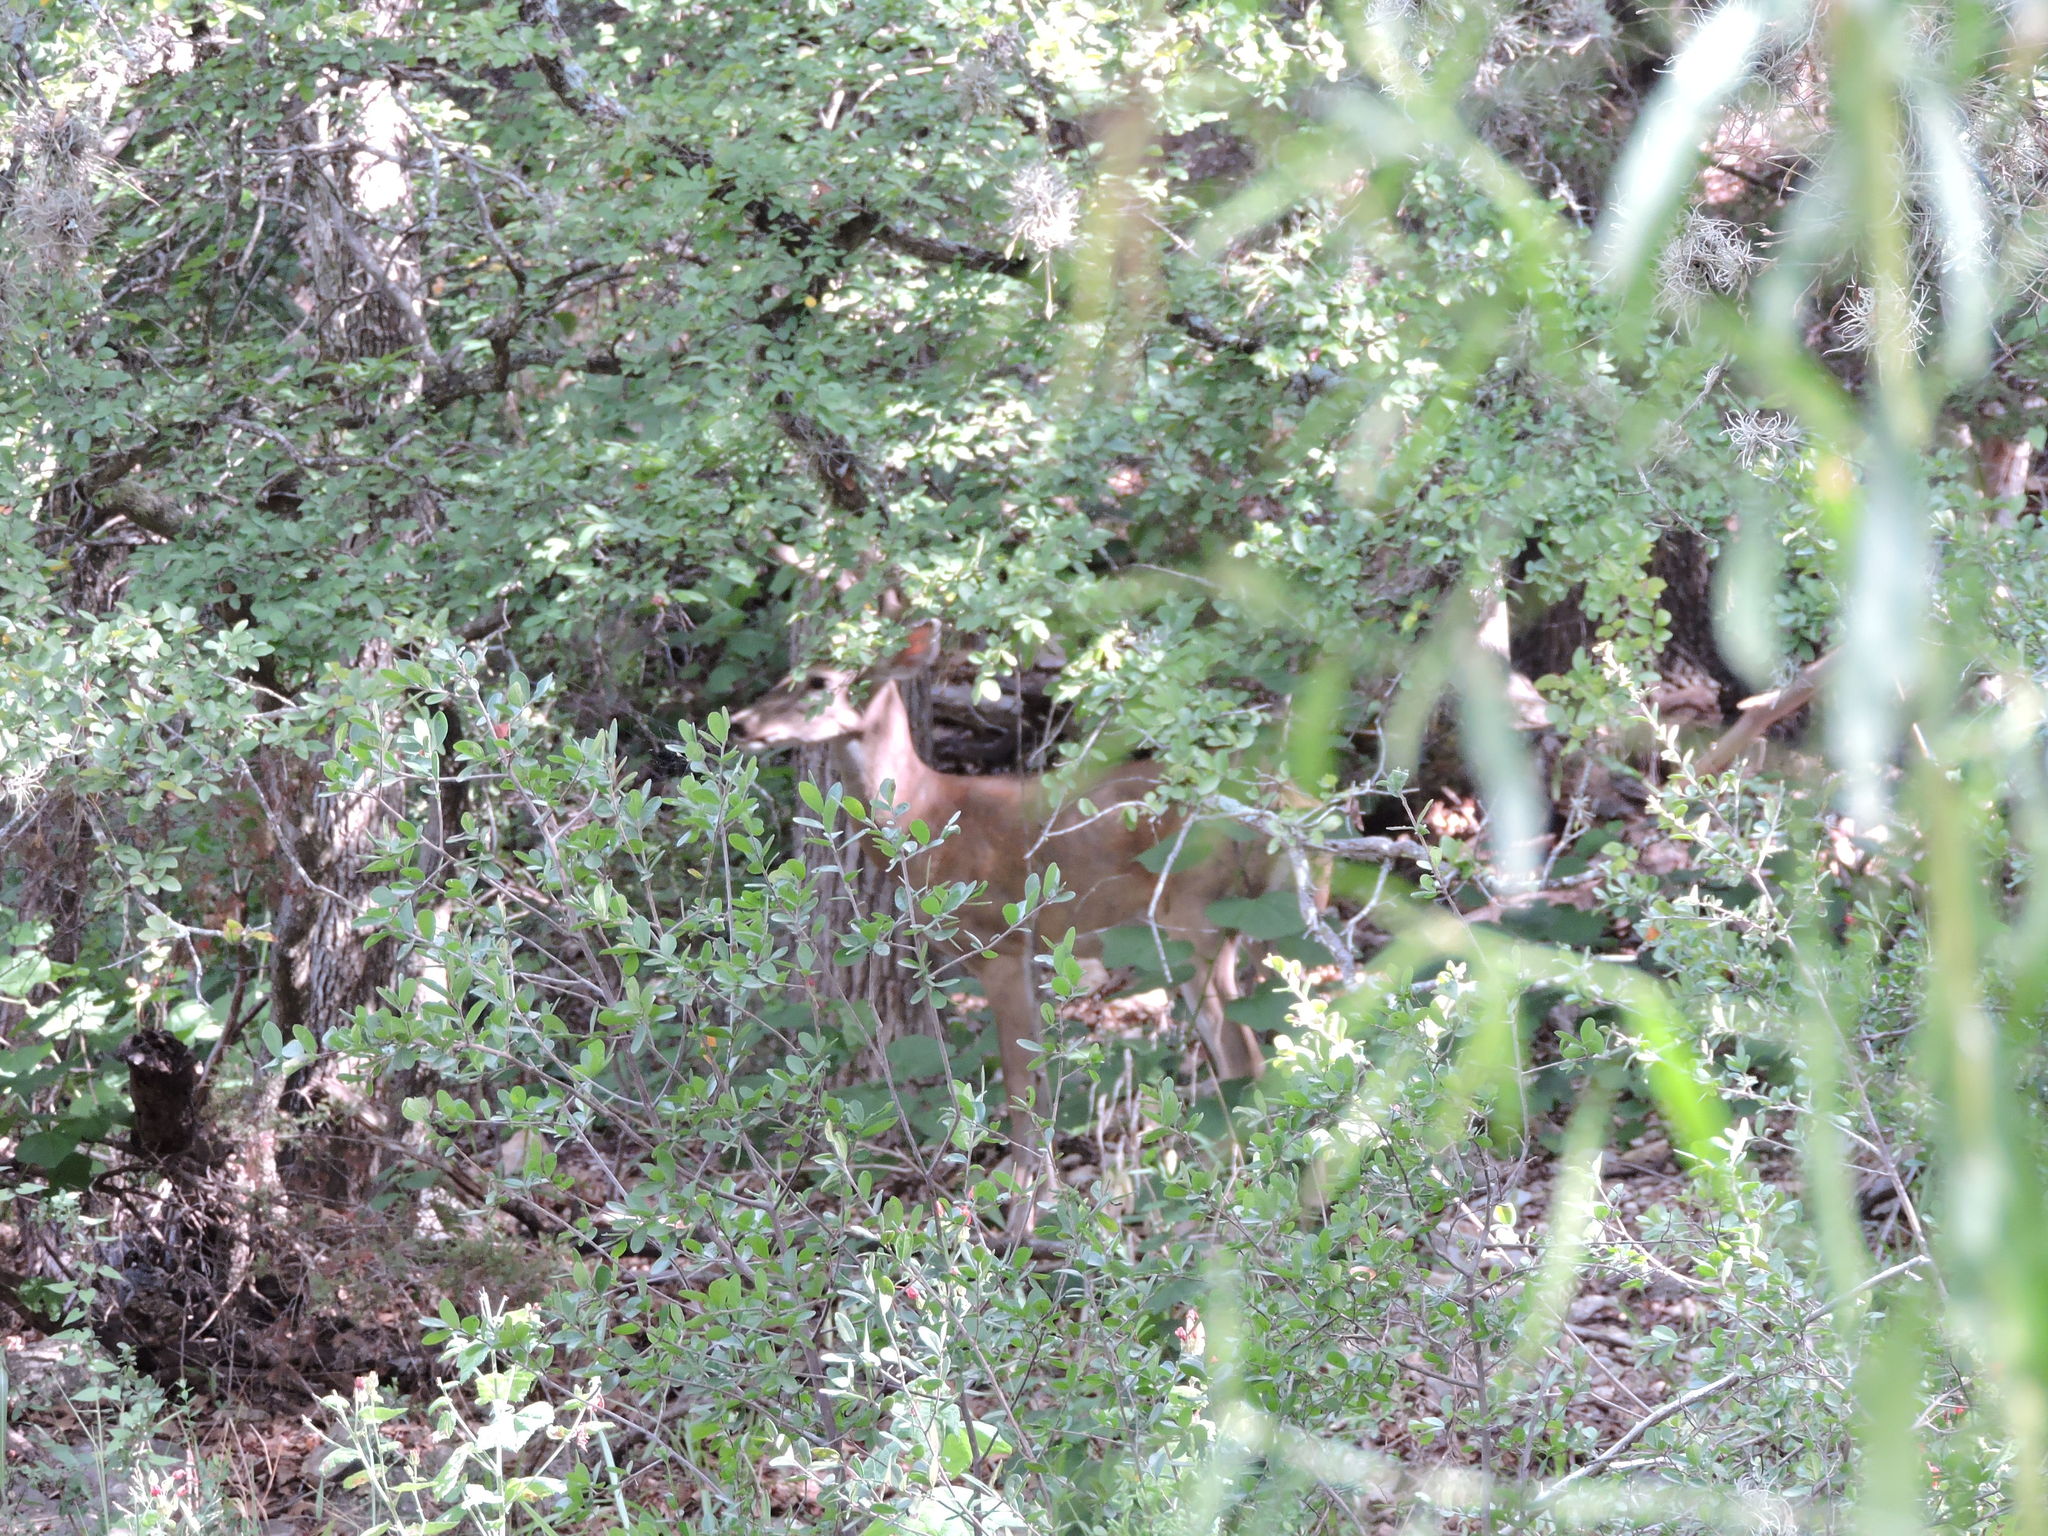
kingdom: Animalia
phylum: Chordata
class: Mammalia
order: Artiodactyla
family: Cervidae
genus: Odocoileus
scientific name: Odocoileus virginianus
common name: White-tailed deer
